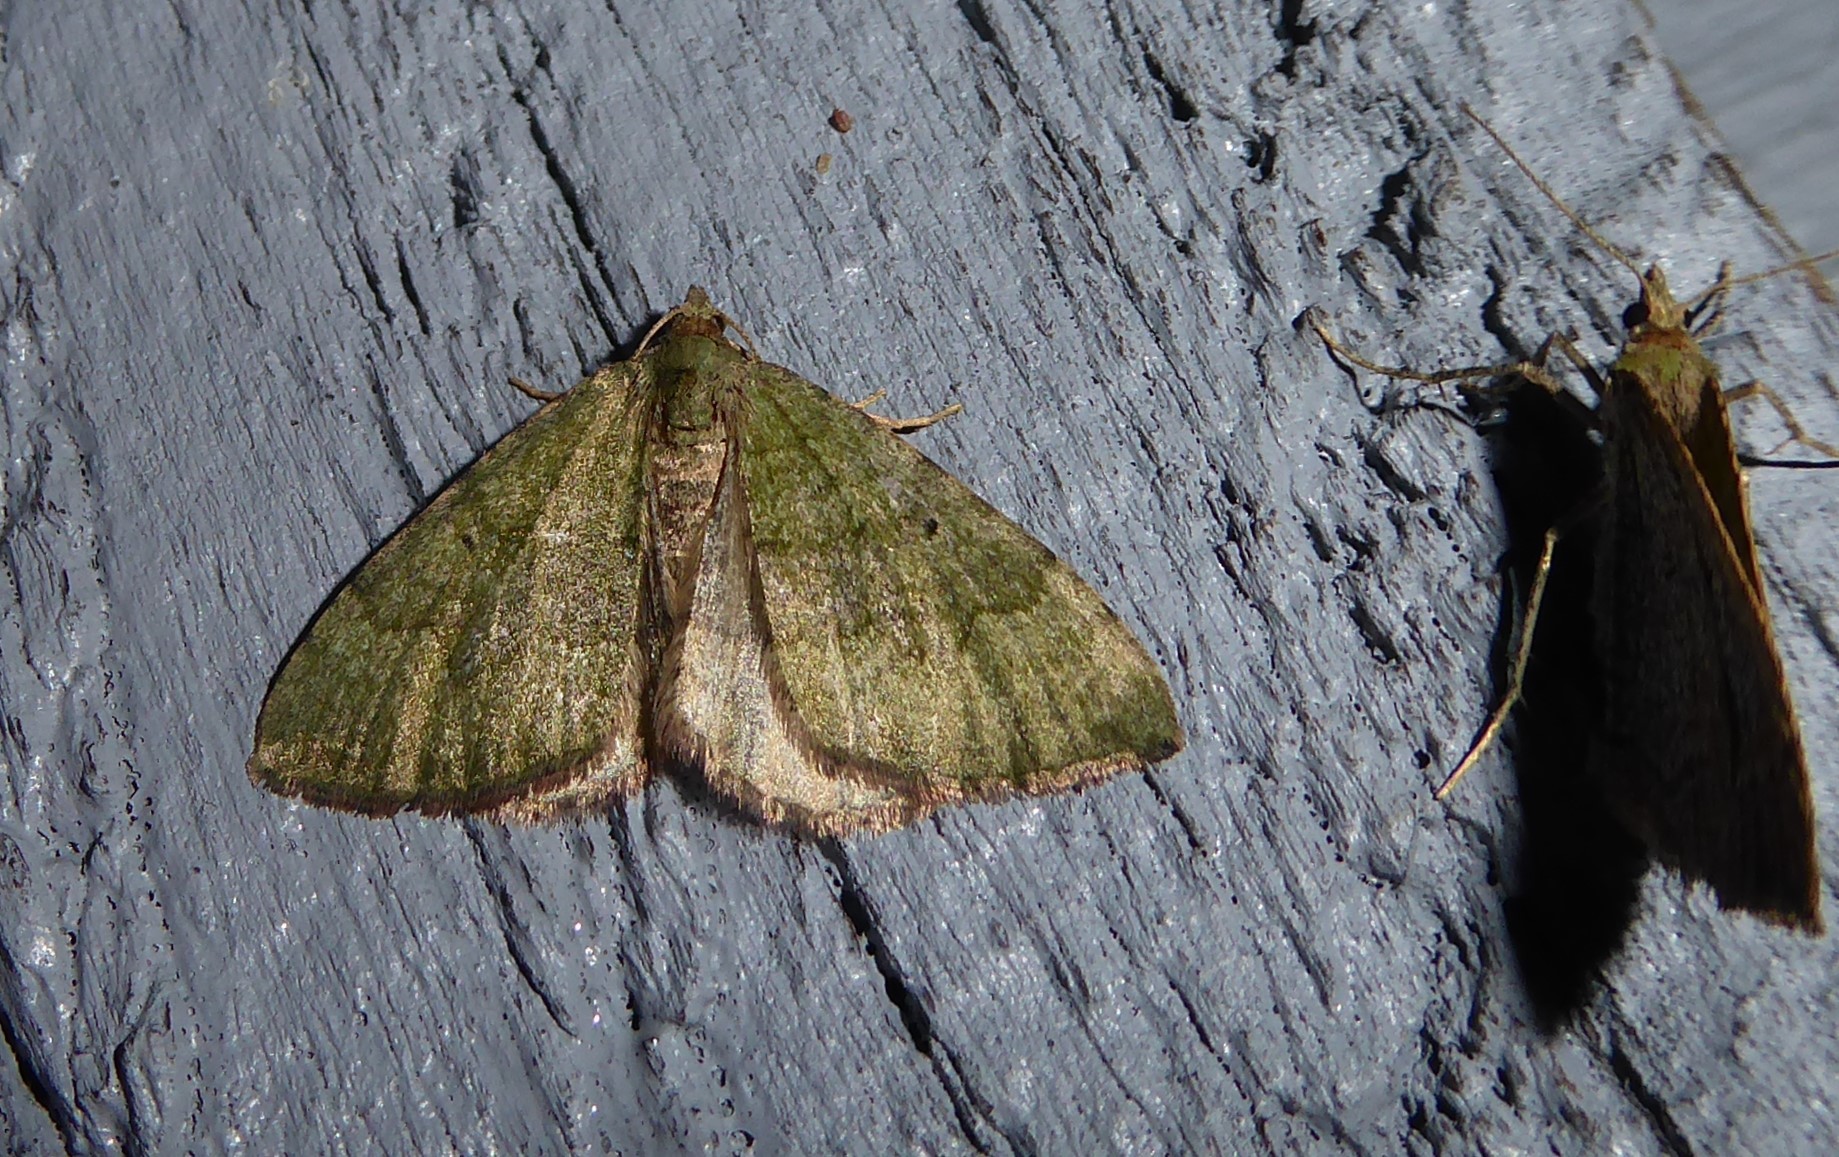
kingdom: Animalia
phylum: Arthropoda
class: Insecta
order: Lepidoptera
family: Geometridae
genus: Epyaxa
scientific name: Epyaxa rosearia
